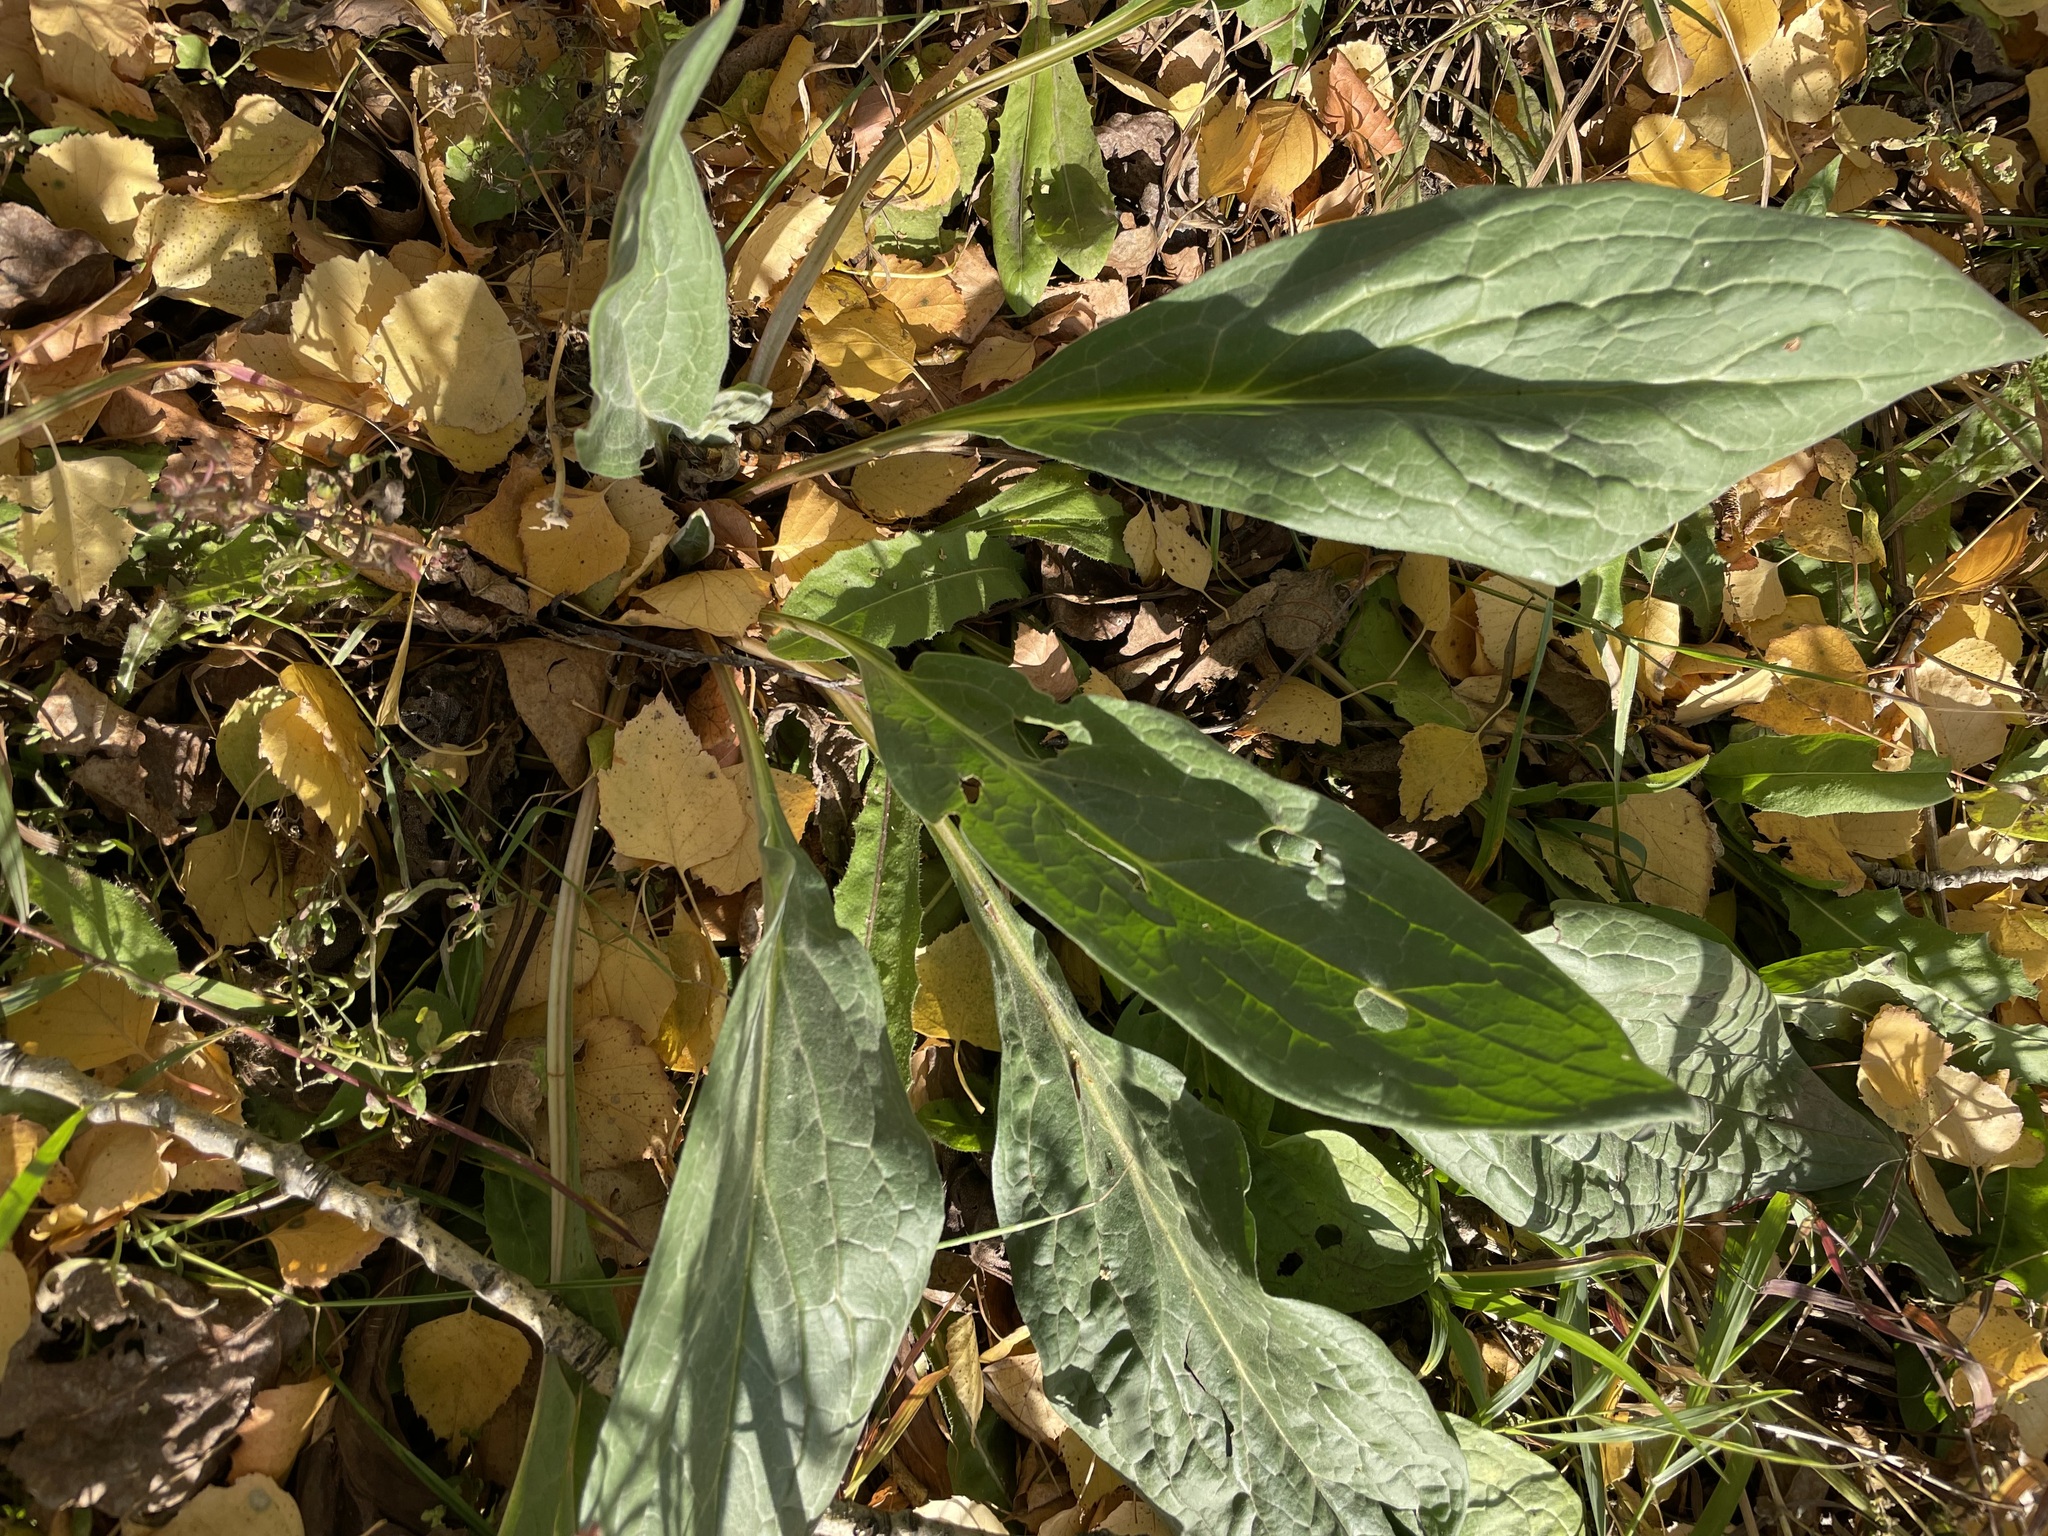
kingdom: Plantae
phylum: Tracheophyta
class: Magnoliopsida
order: Boraginales
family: Boraginaceae
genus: Cynoglossum
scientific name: Cynoglossum officinale
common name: Hound's-tongue
